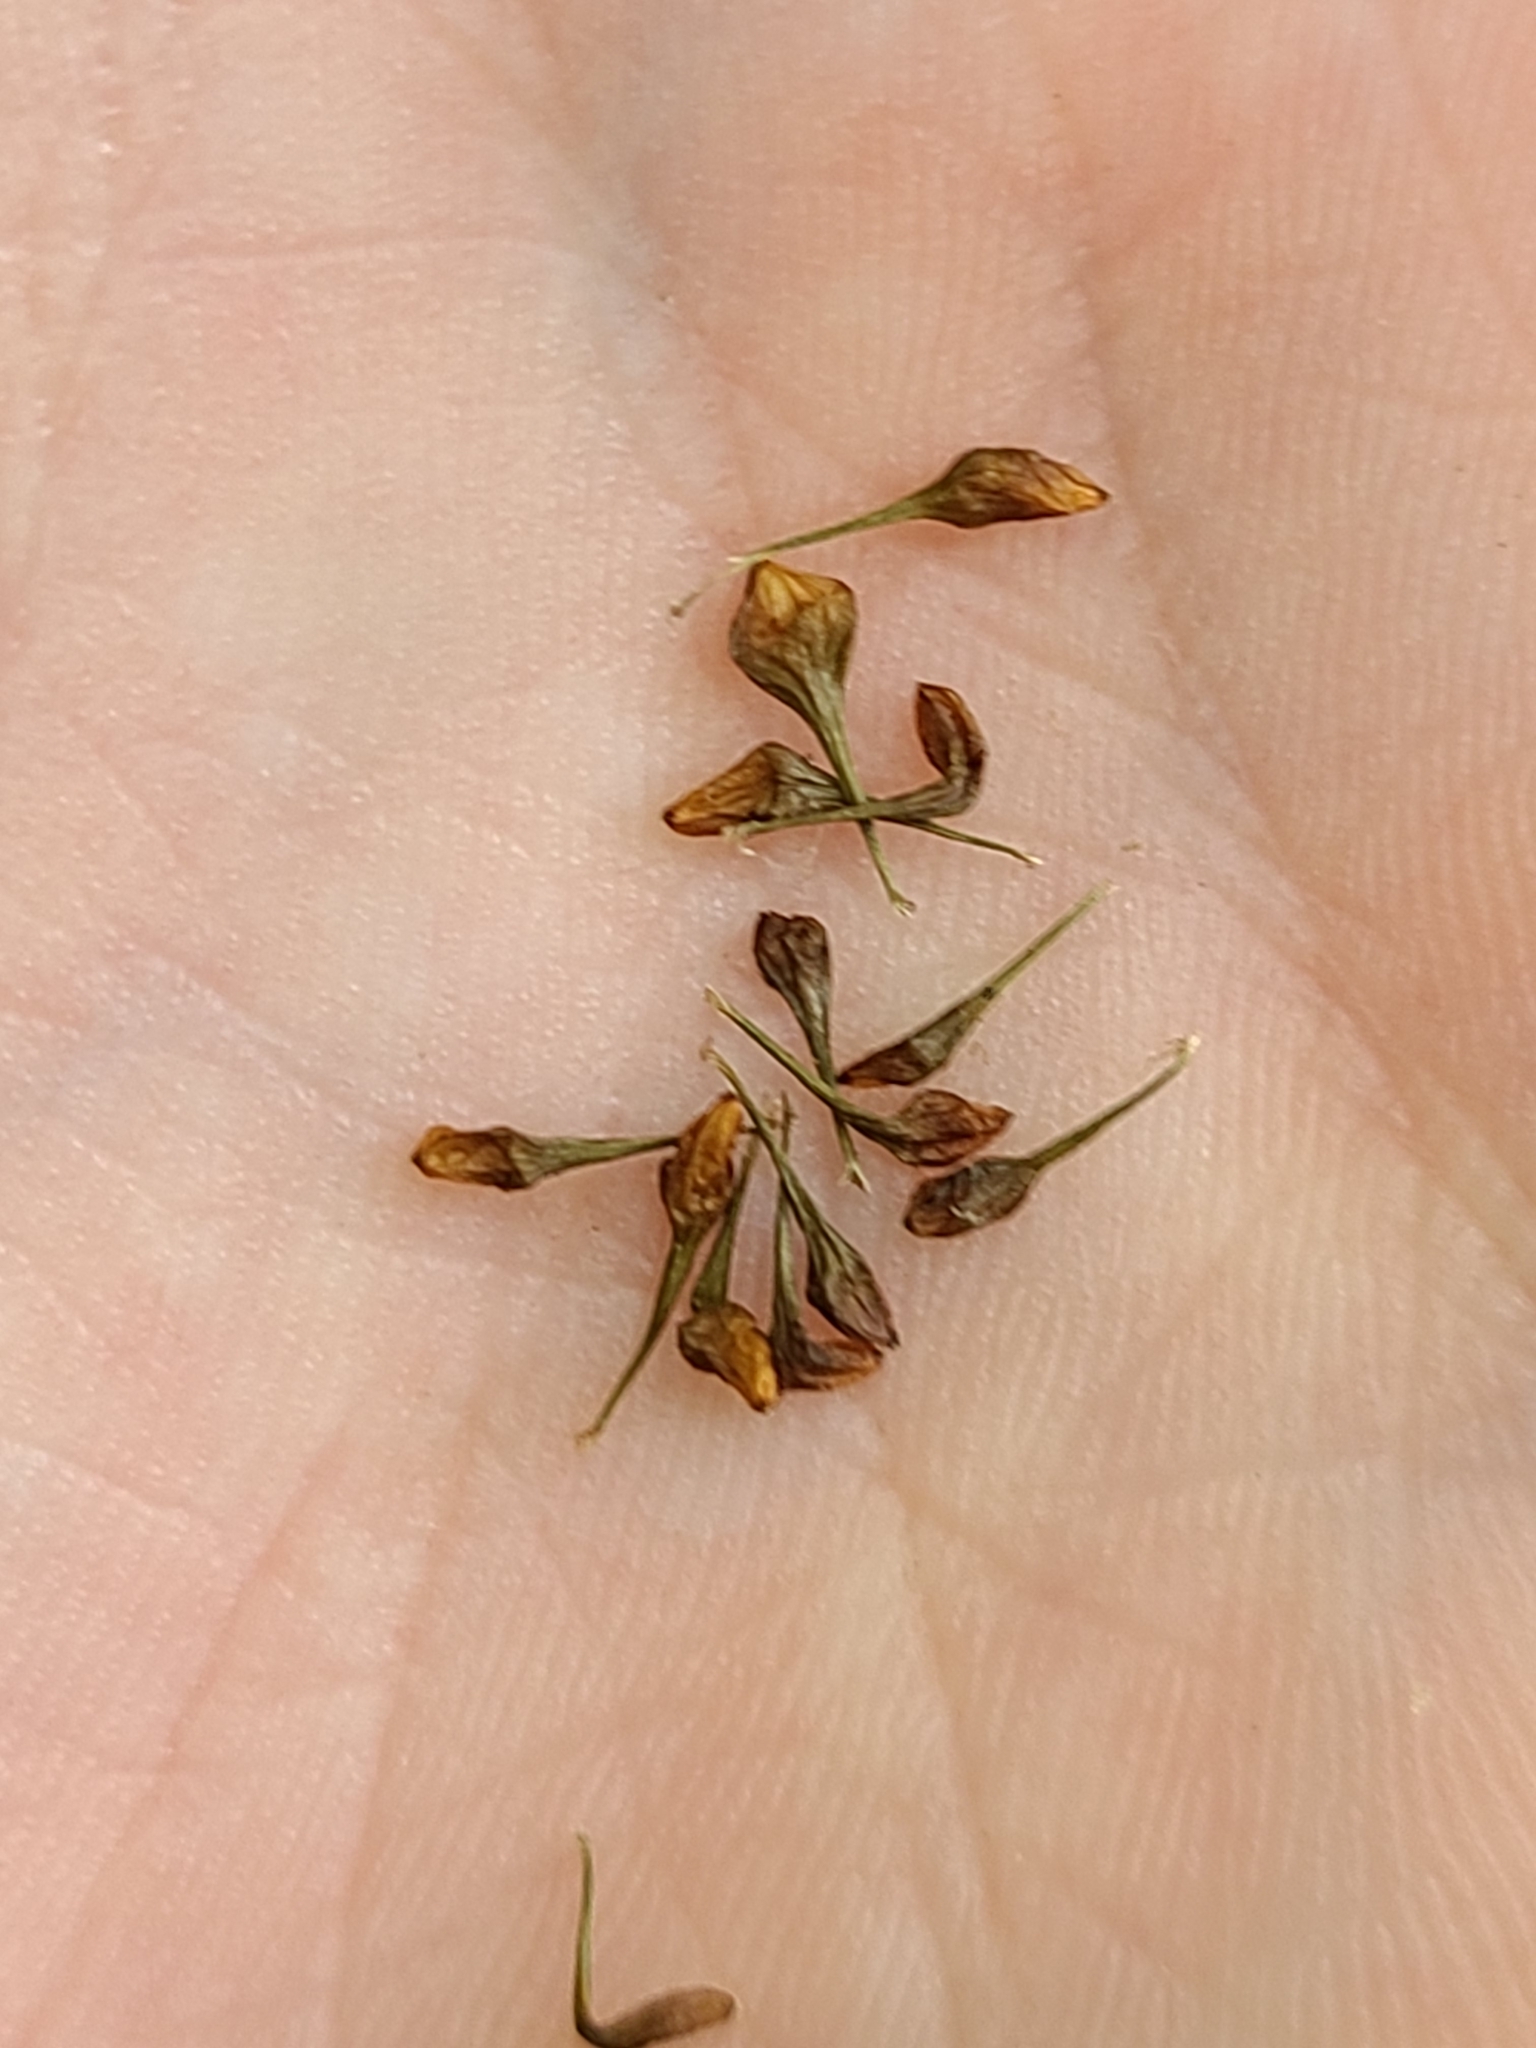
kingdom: Plantae
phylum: Tracheophyta
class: Liliopsida
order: Poales
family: Cyperaceae
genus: Carex
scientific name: Carex lurida
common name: Sallow sedge
